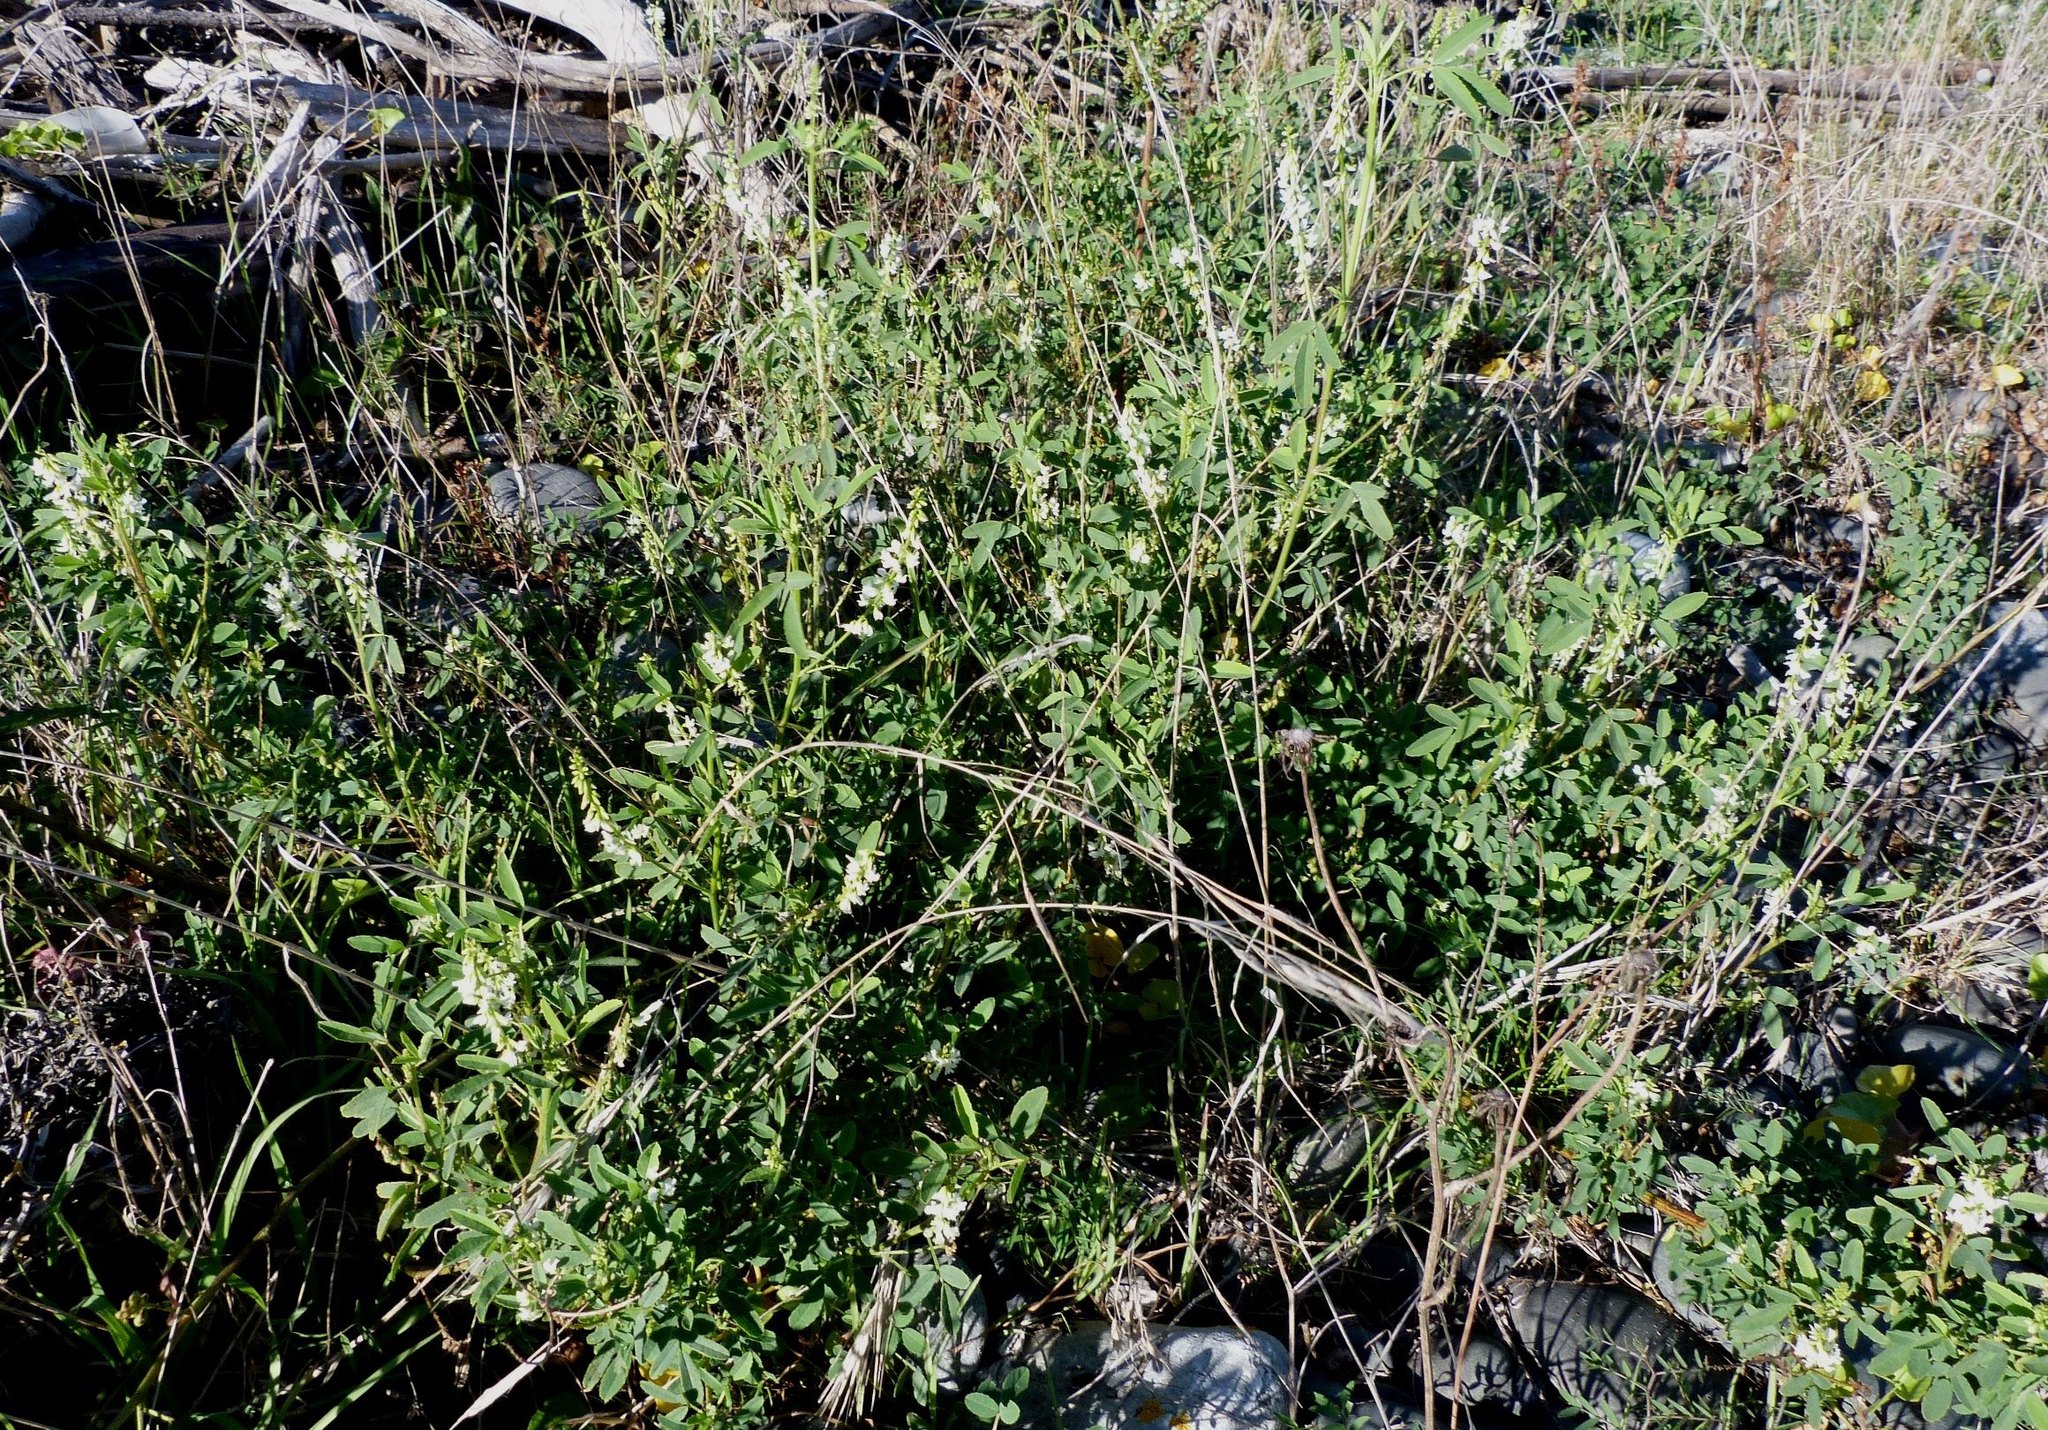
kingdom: Plantae
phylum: Tracheophyta
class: Magnoliopsida
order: Fabales
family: Fabaceae
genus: Melilotus
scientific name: Melilotus albus
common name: White melilot
